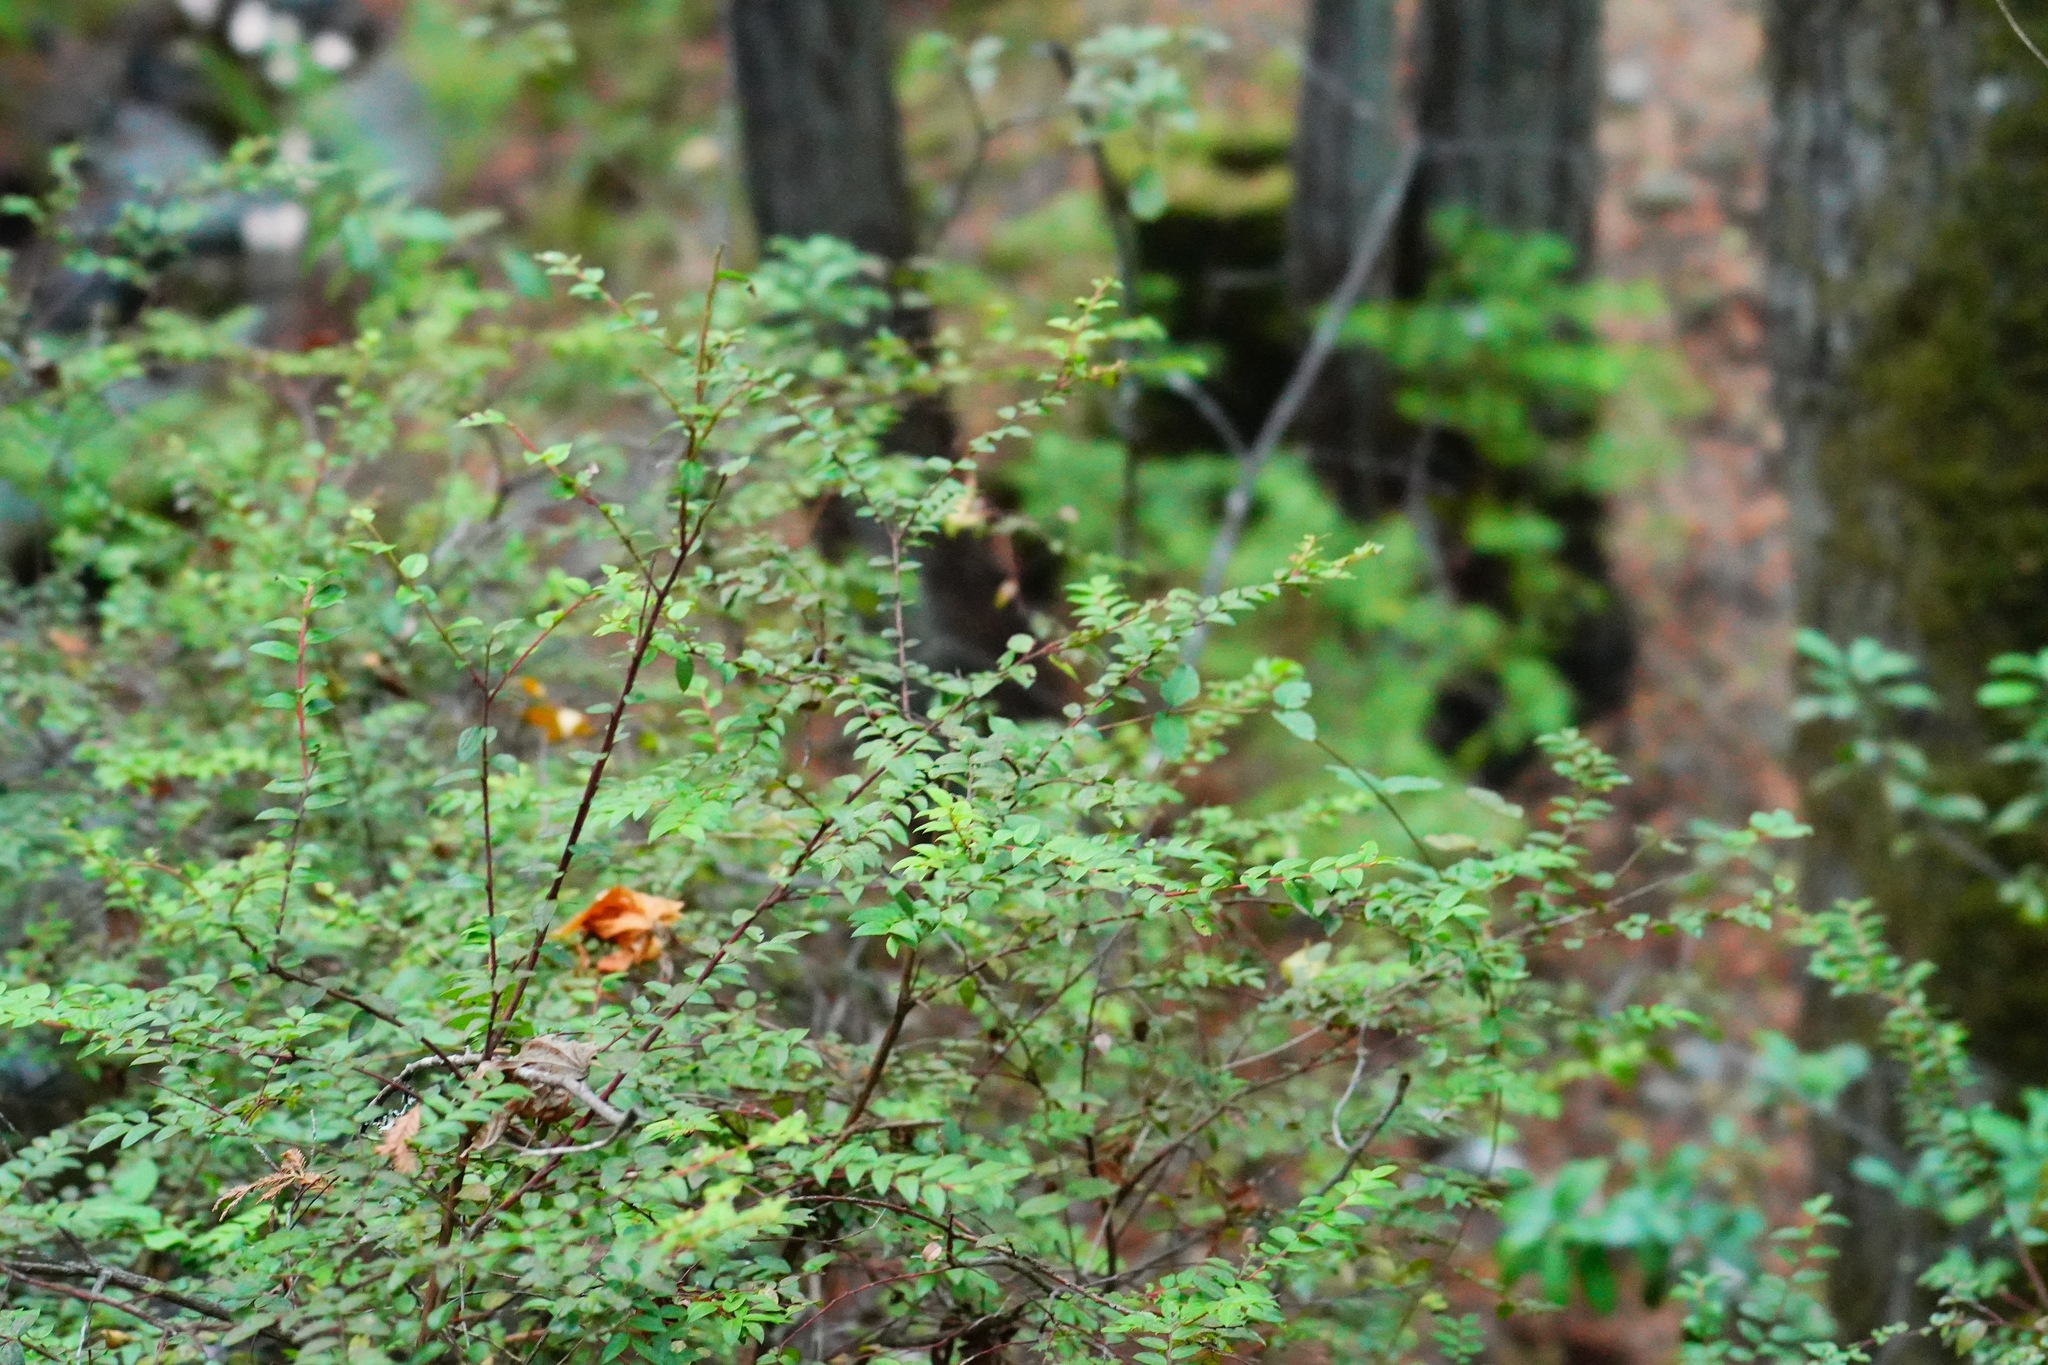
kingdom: Plantae
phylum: Tracheophyta
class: Magnoliopsida
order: Ericales
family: Ericaceae
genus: Vaccinium
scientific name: Vaccinium ovatum
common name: California-huckleberry
